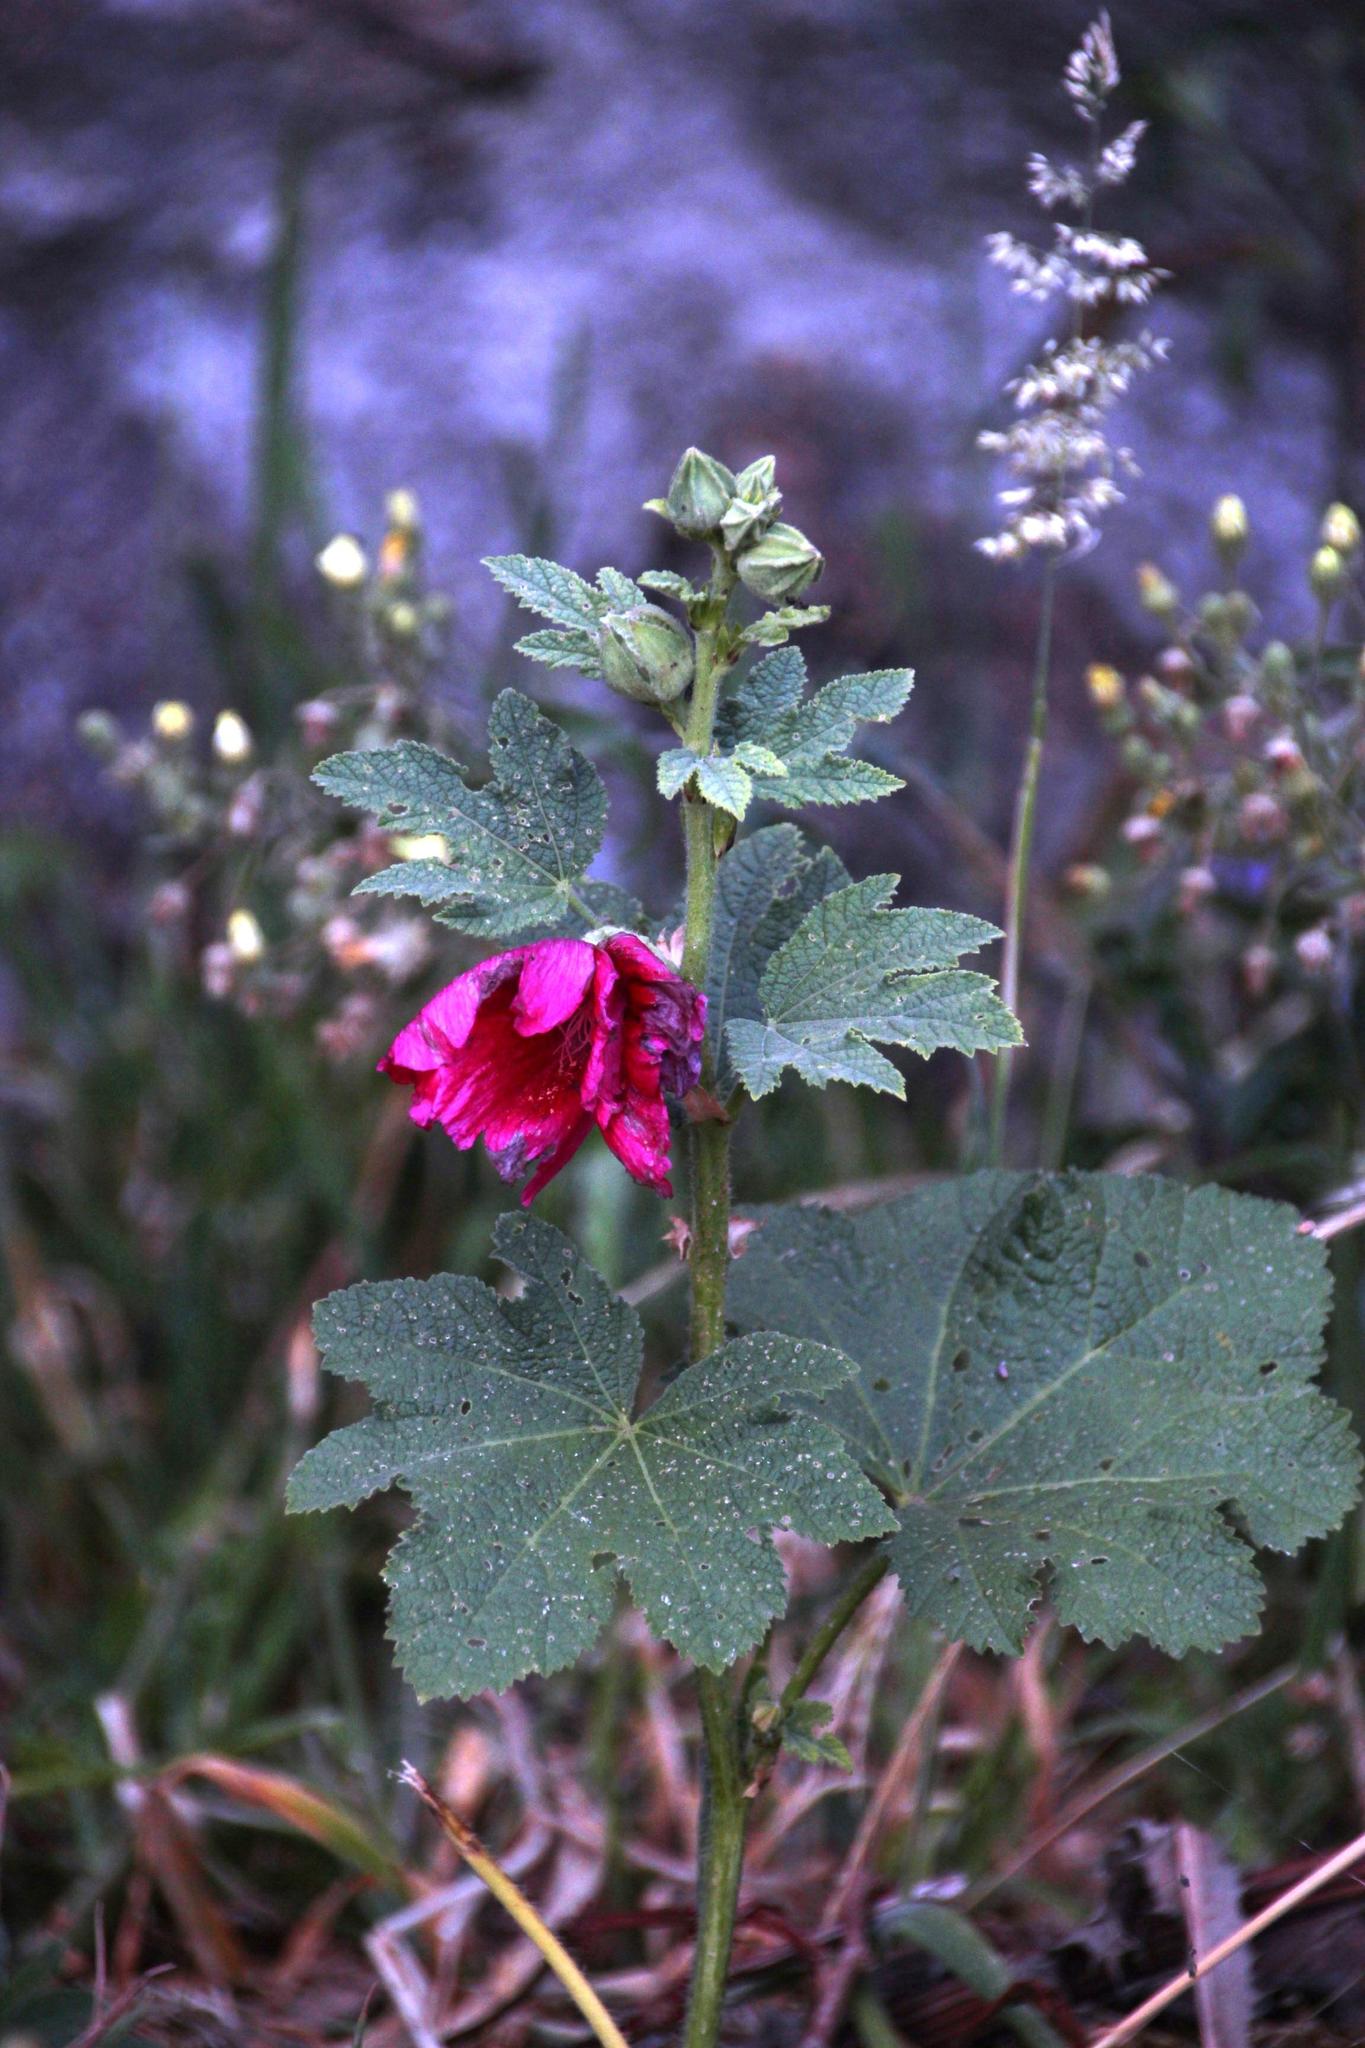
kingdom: Plantae
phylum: Tracheophyta
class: Magnoliopsida
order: Malvales
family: Malvaceae
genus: Alcea
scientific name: Alcea rosea
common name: Hollyhock
